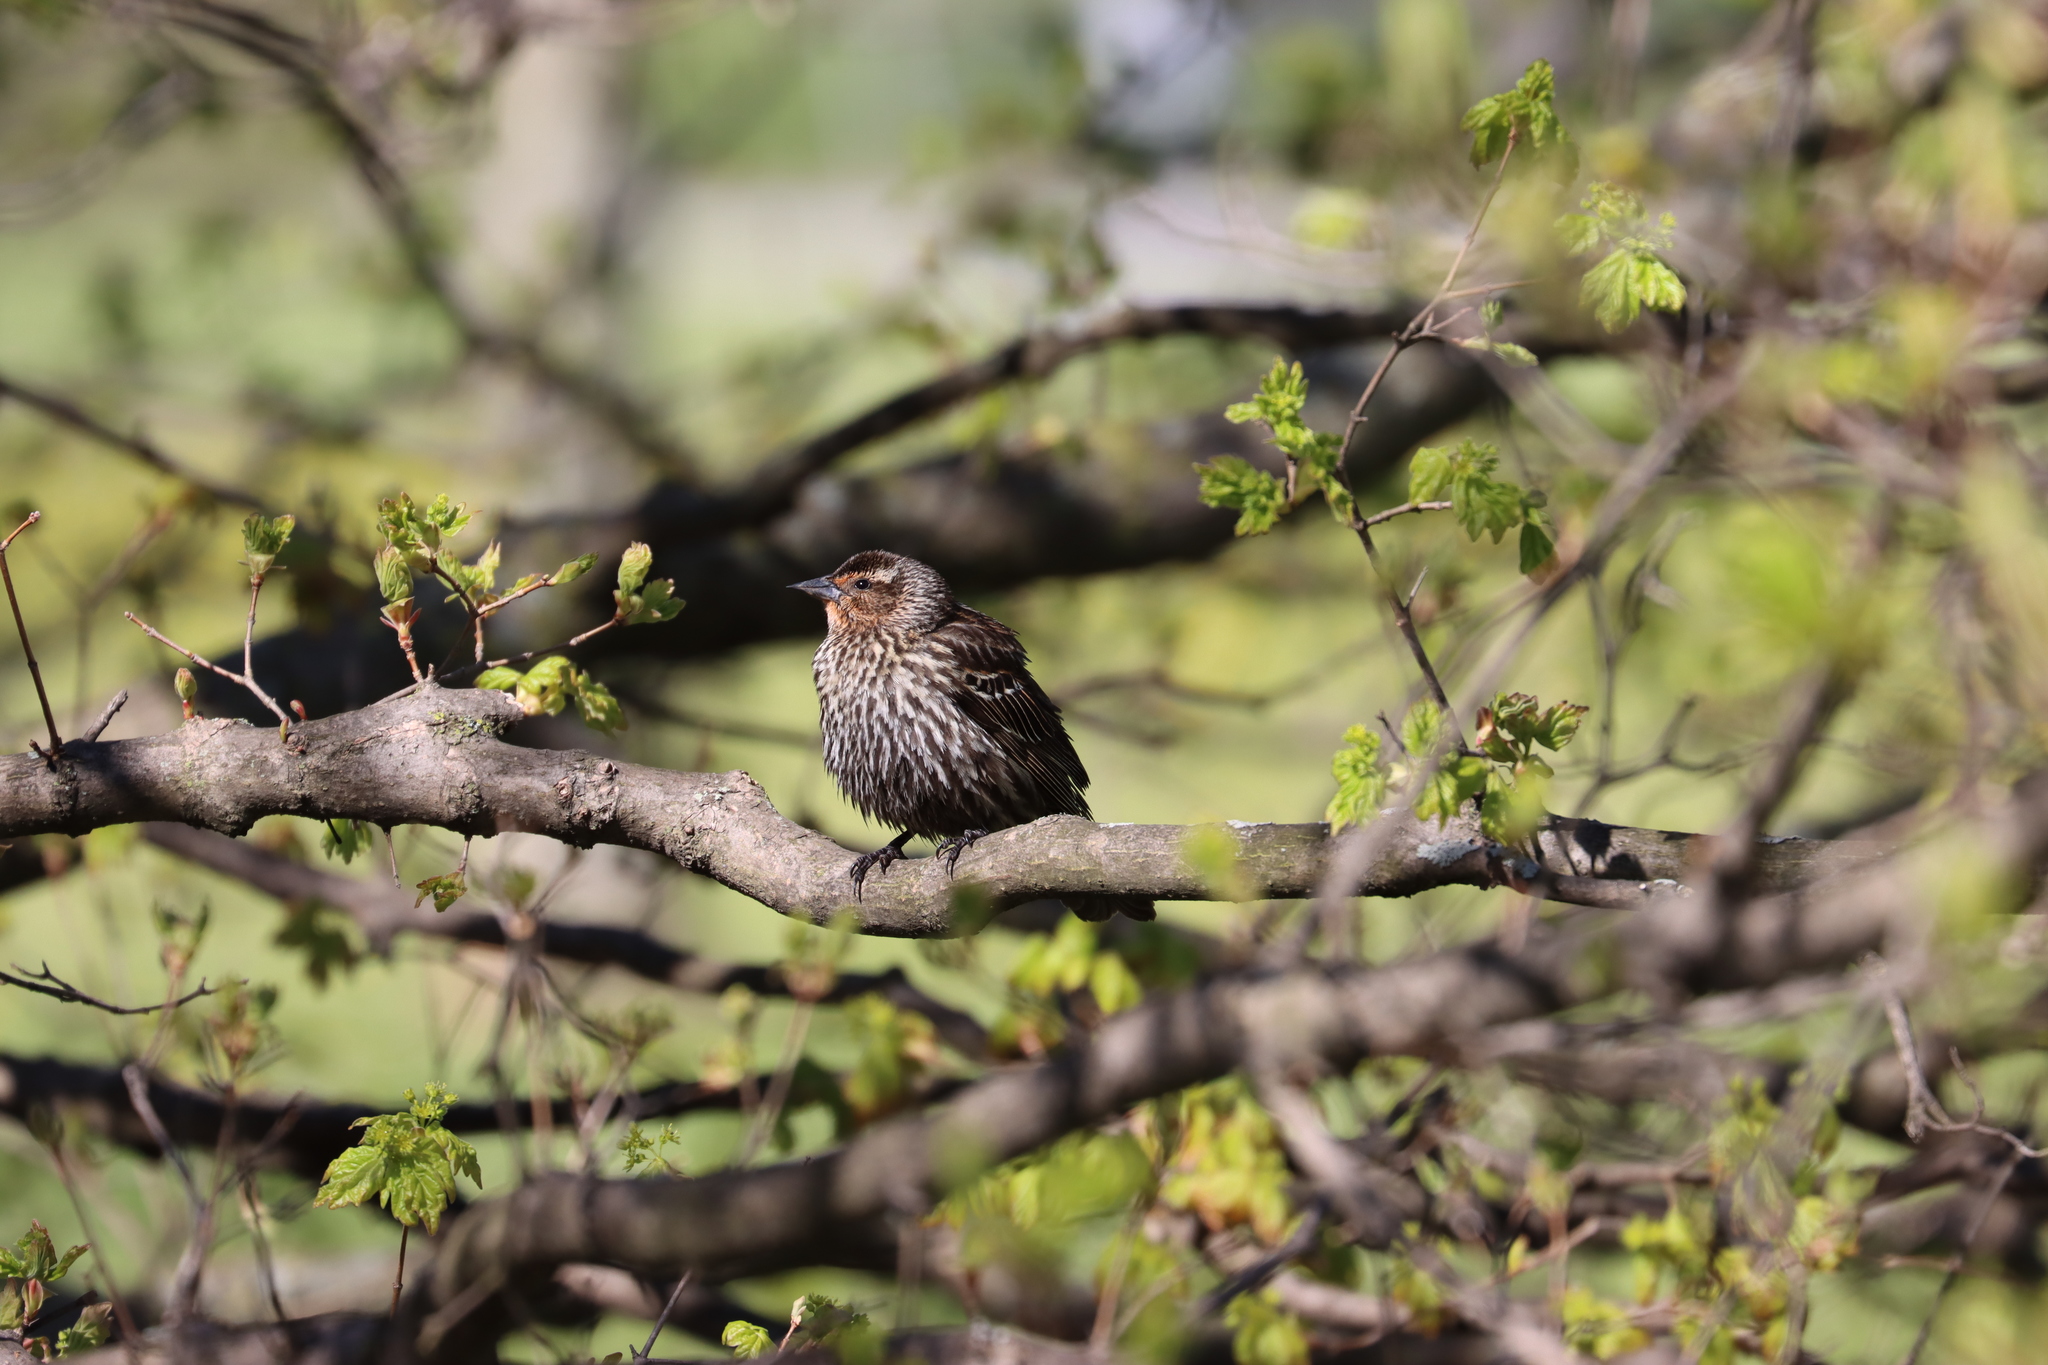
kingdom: Animalia
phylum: Chordata
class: Aves
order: Passeriformes
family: Icteridae
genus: Agelaius
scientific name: Agelaius phoeniceus
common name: Red-winged blackbird
